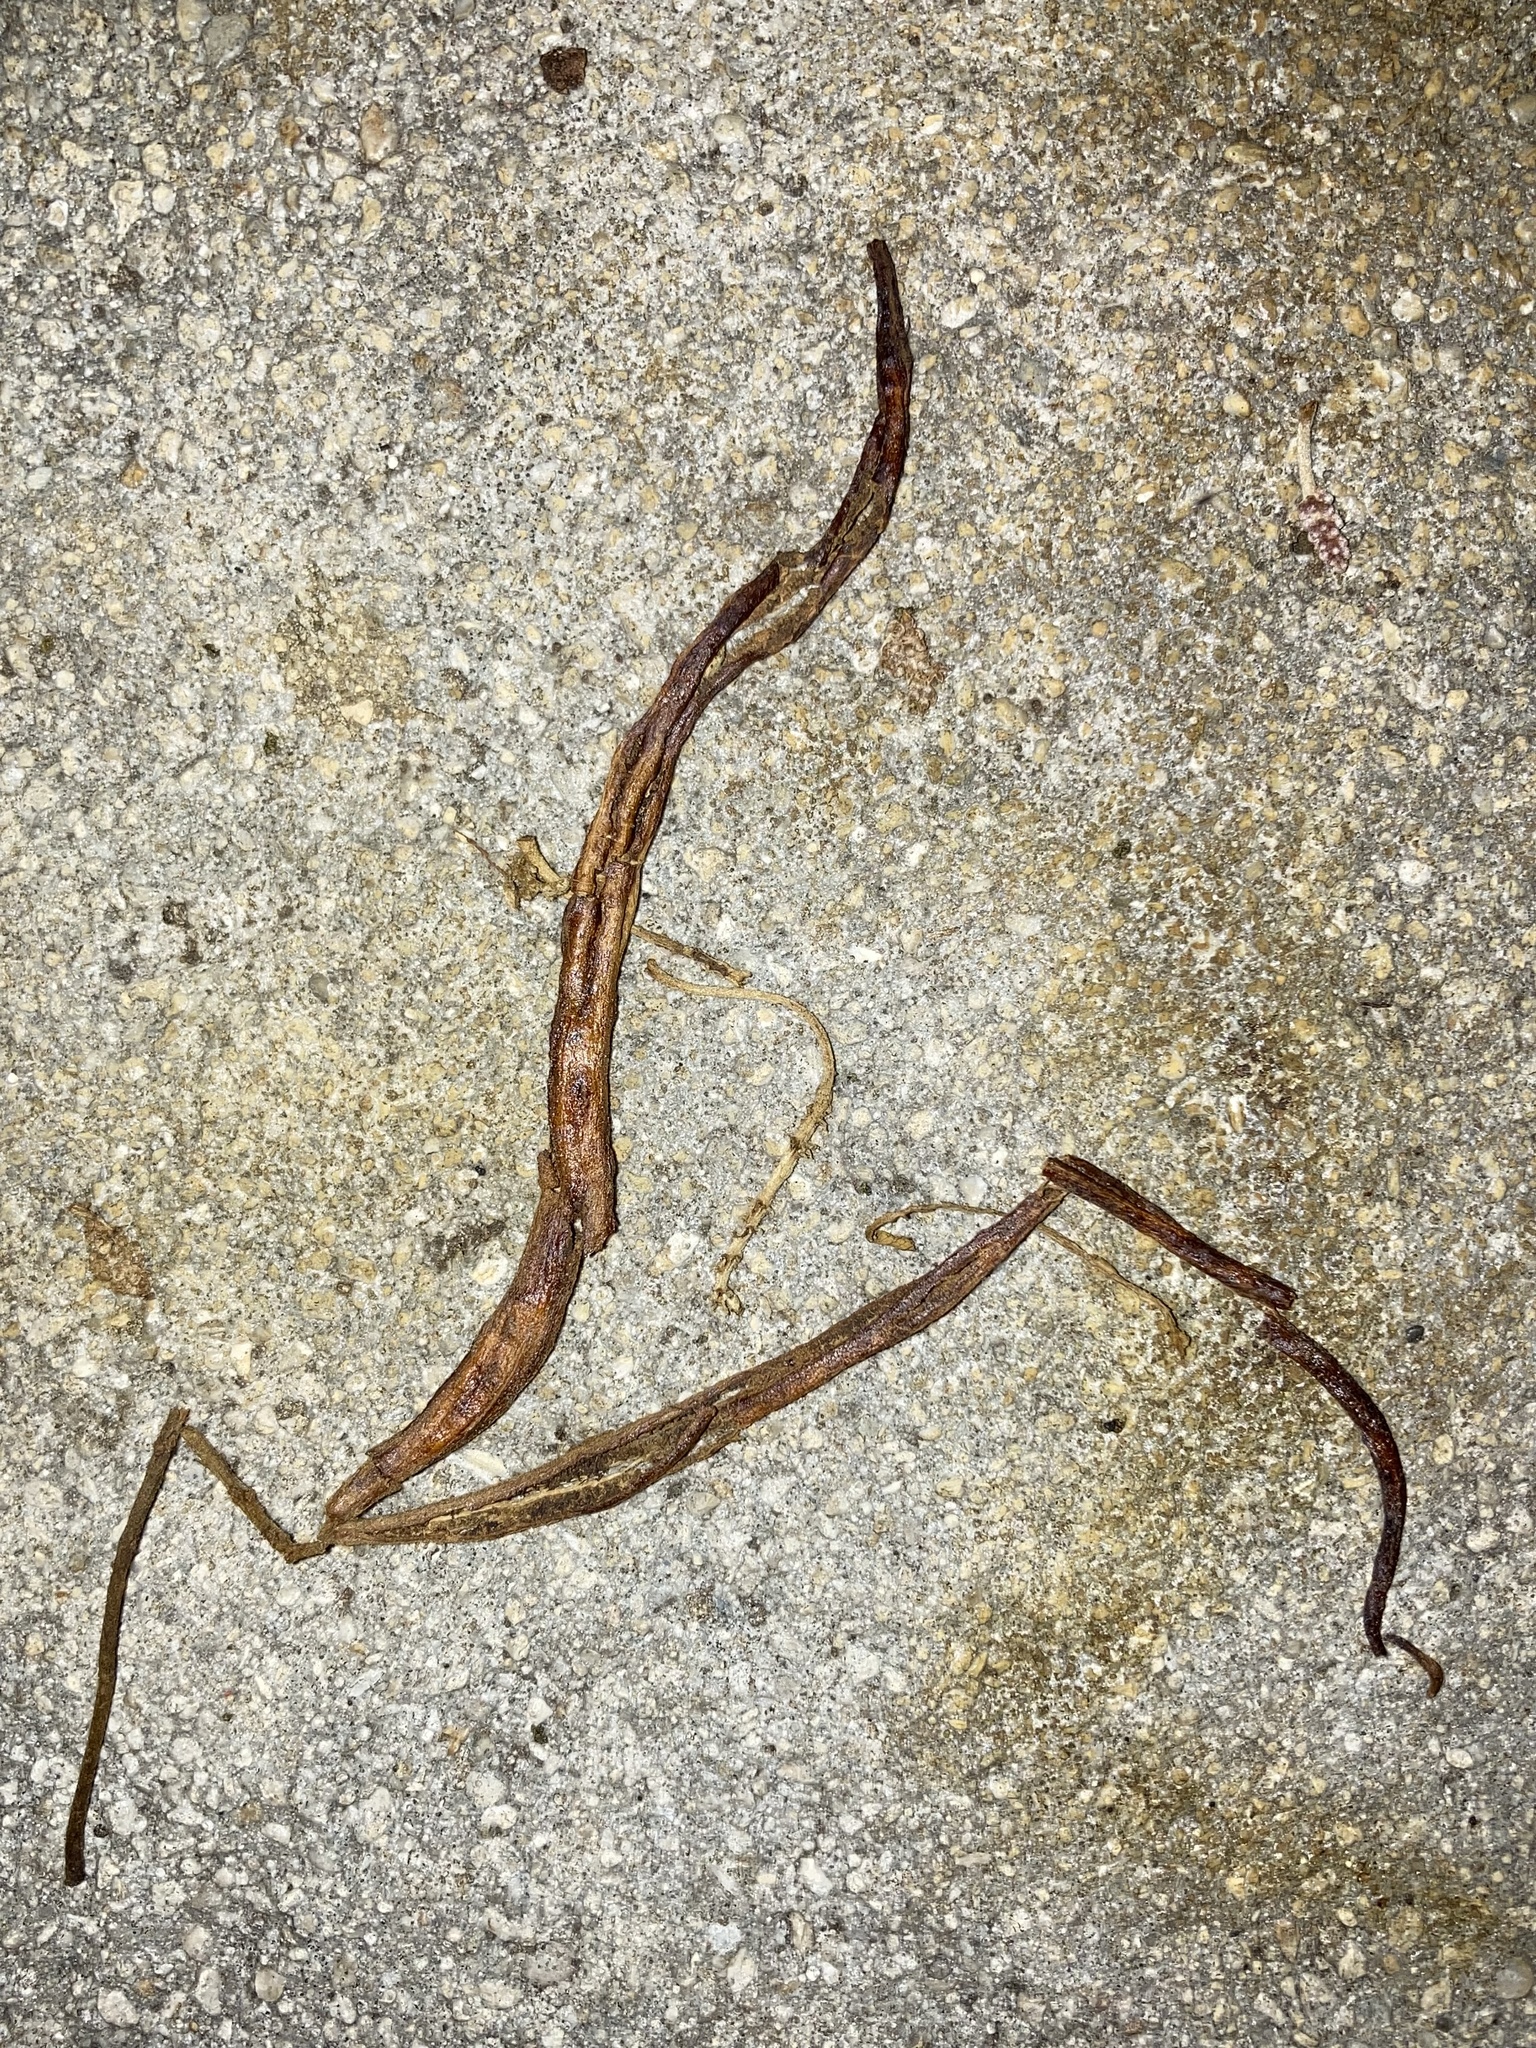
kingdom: Animalia
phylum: Arthropoda
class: Arachnida
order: Trombidiformes
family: Eriophyidae
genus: Eriophyes
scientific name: Eriophyes
